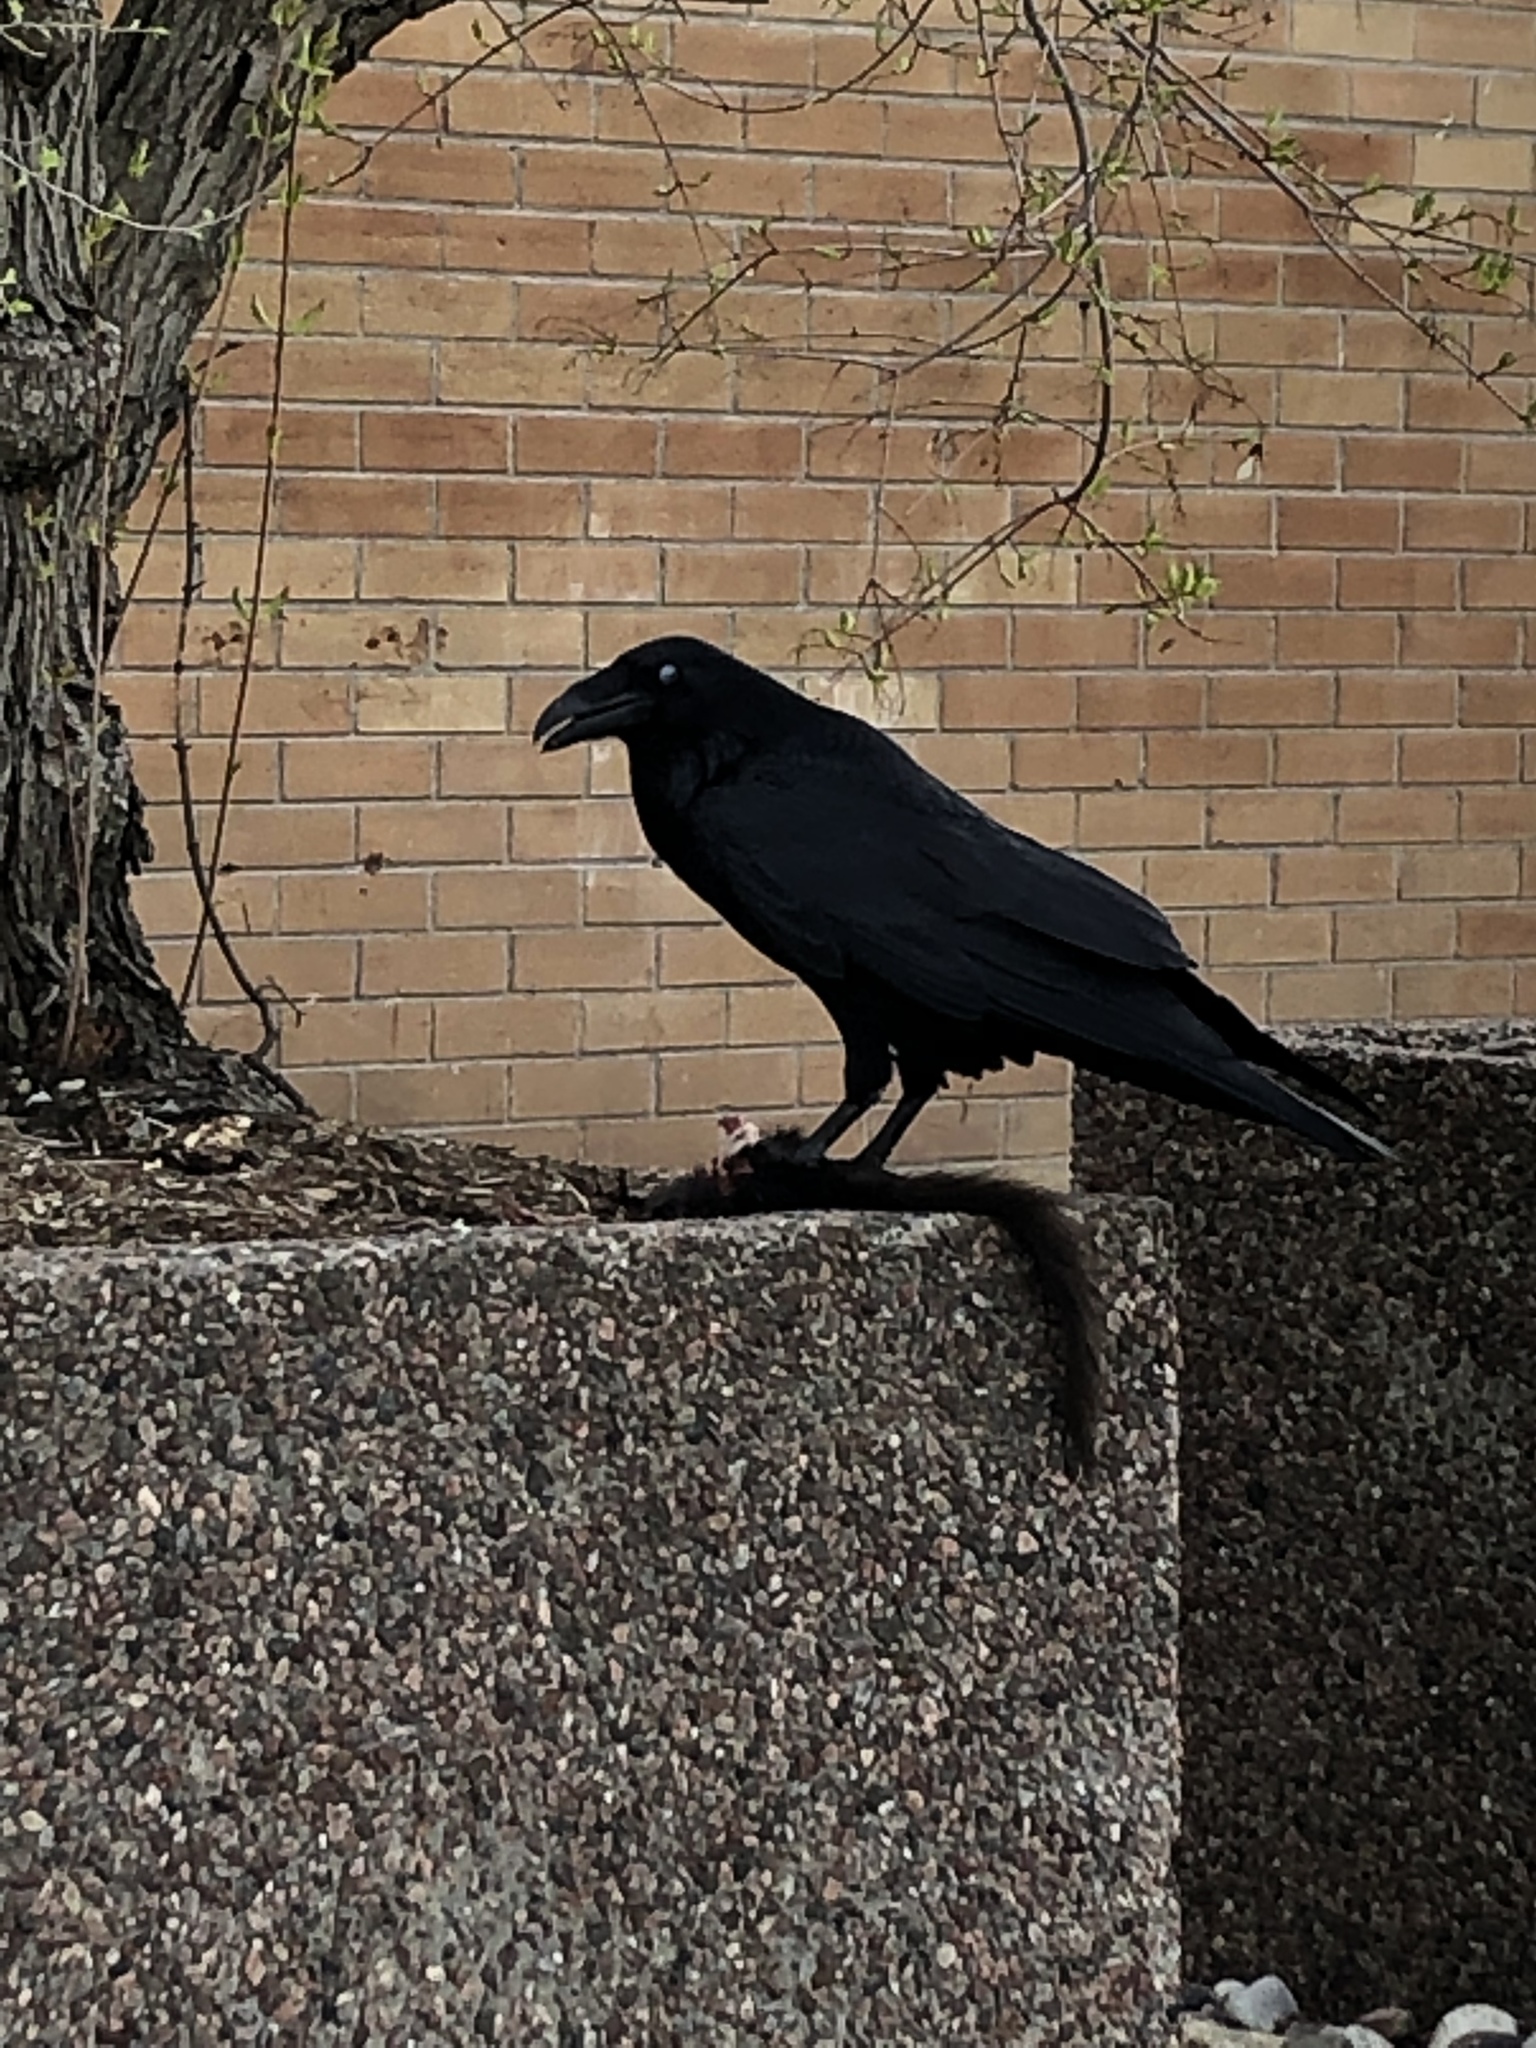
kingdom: Animalia
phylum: Chordata
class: Aves
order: Passeriformes
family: Corvidae
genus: Corvus
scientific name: Corvus corax
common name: Common raven
